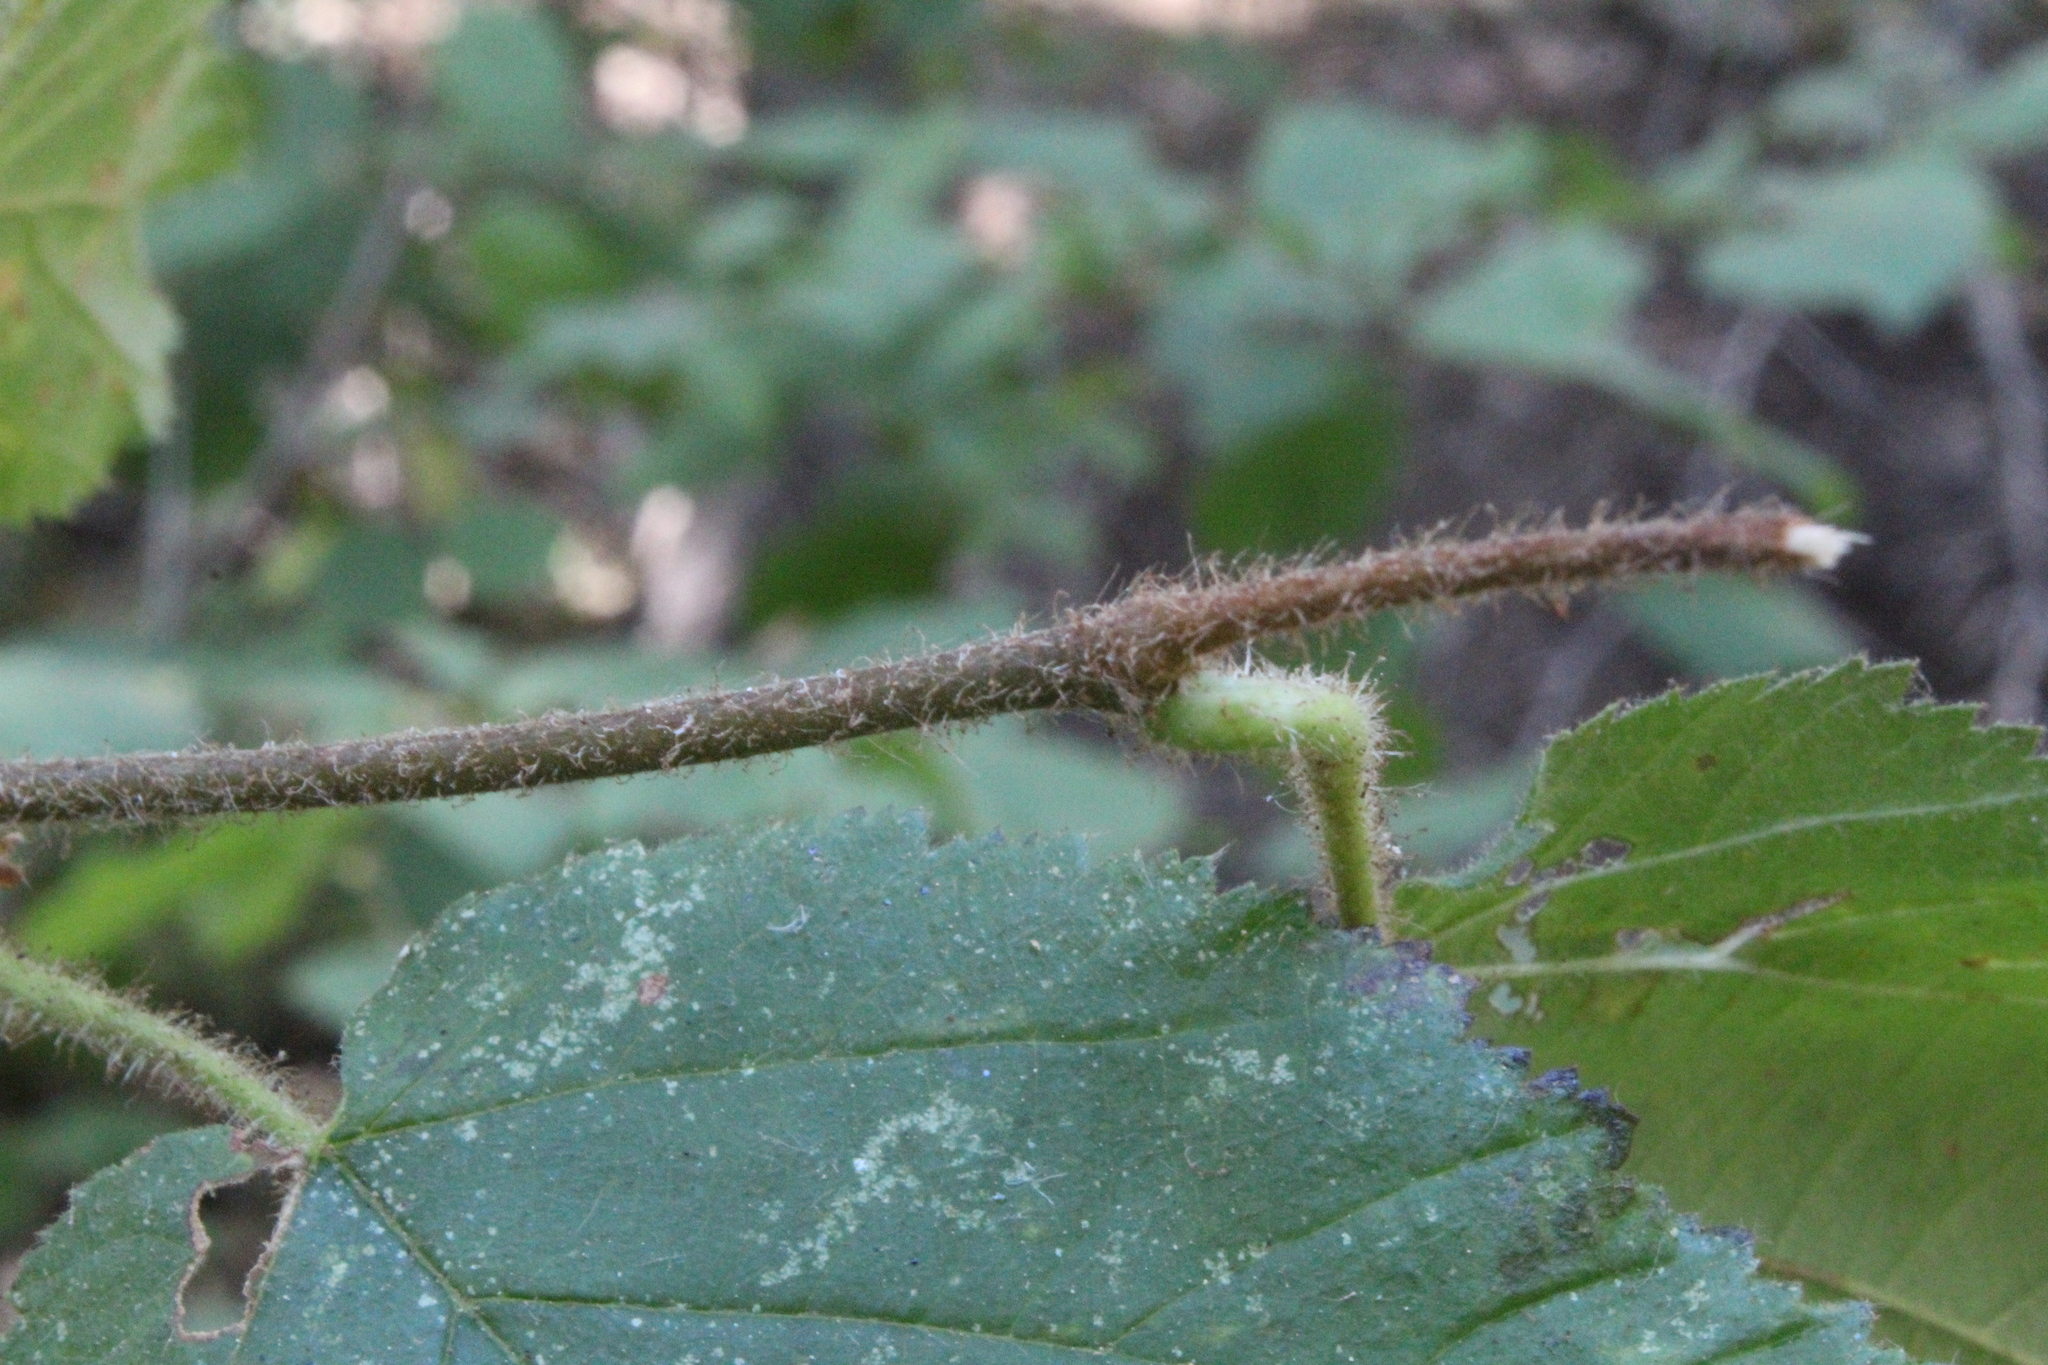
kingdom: Plantae
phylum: Tracheophyta
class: Magnoliopsida
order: Fagales
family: Betulaceae
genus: Corylus
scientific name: Corylus cornuta
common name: Beaked hazel
